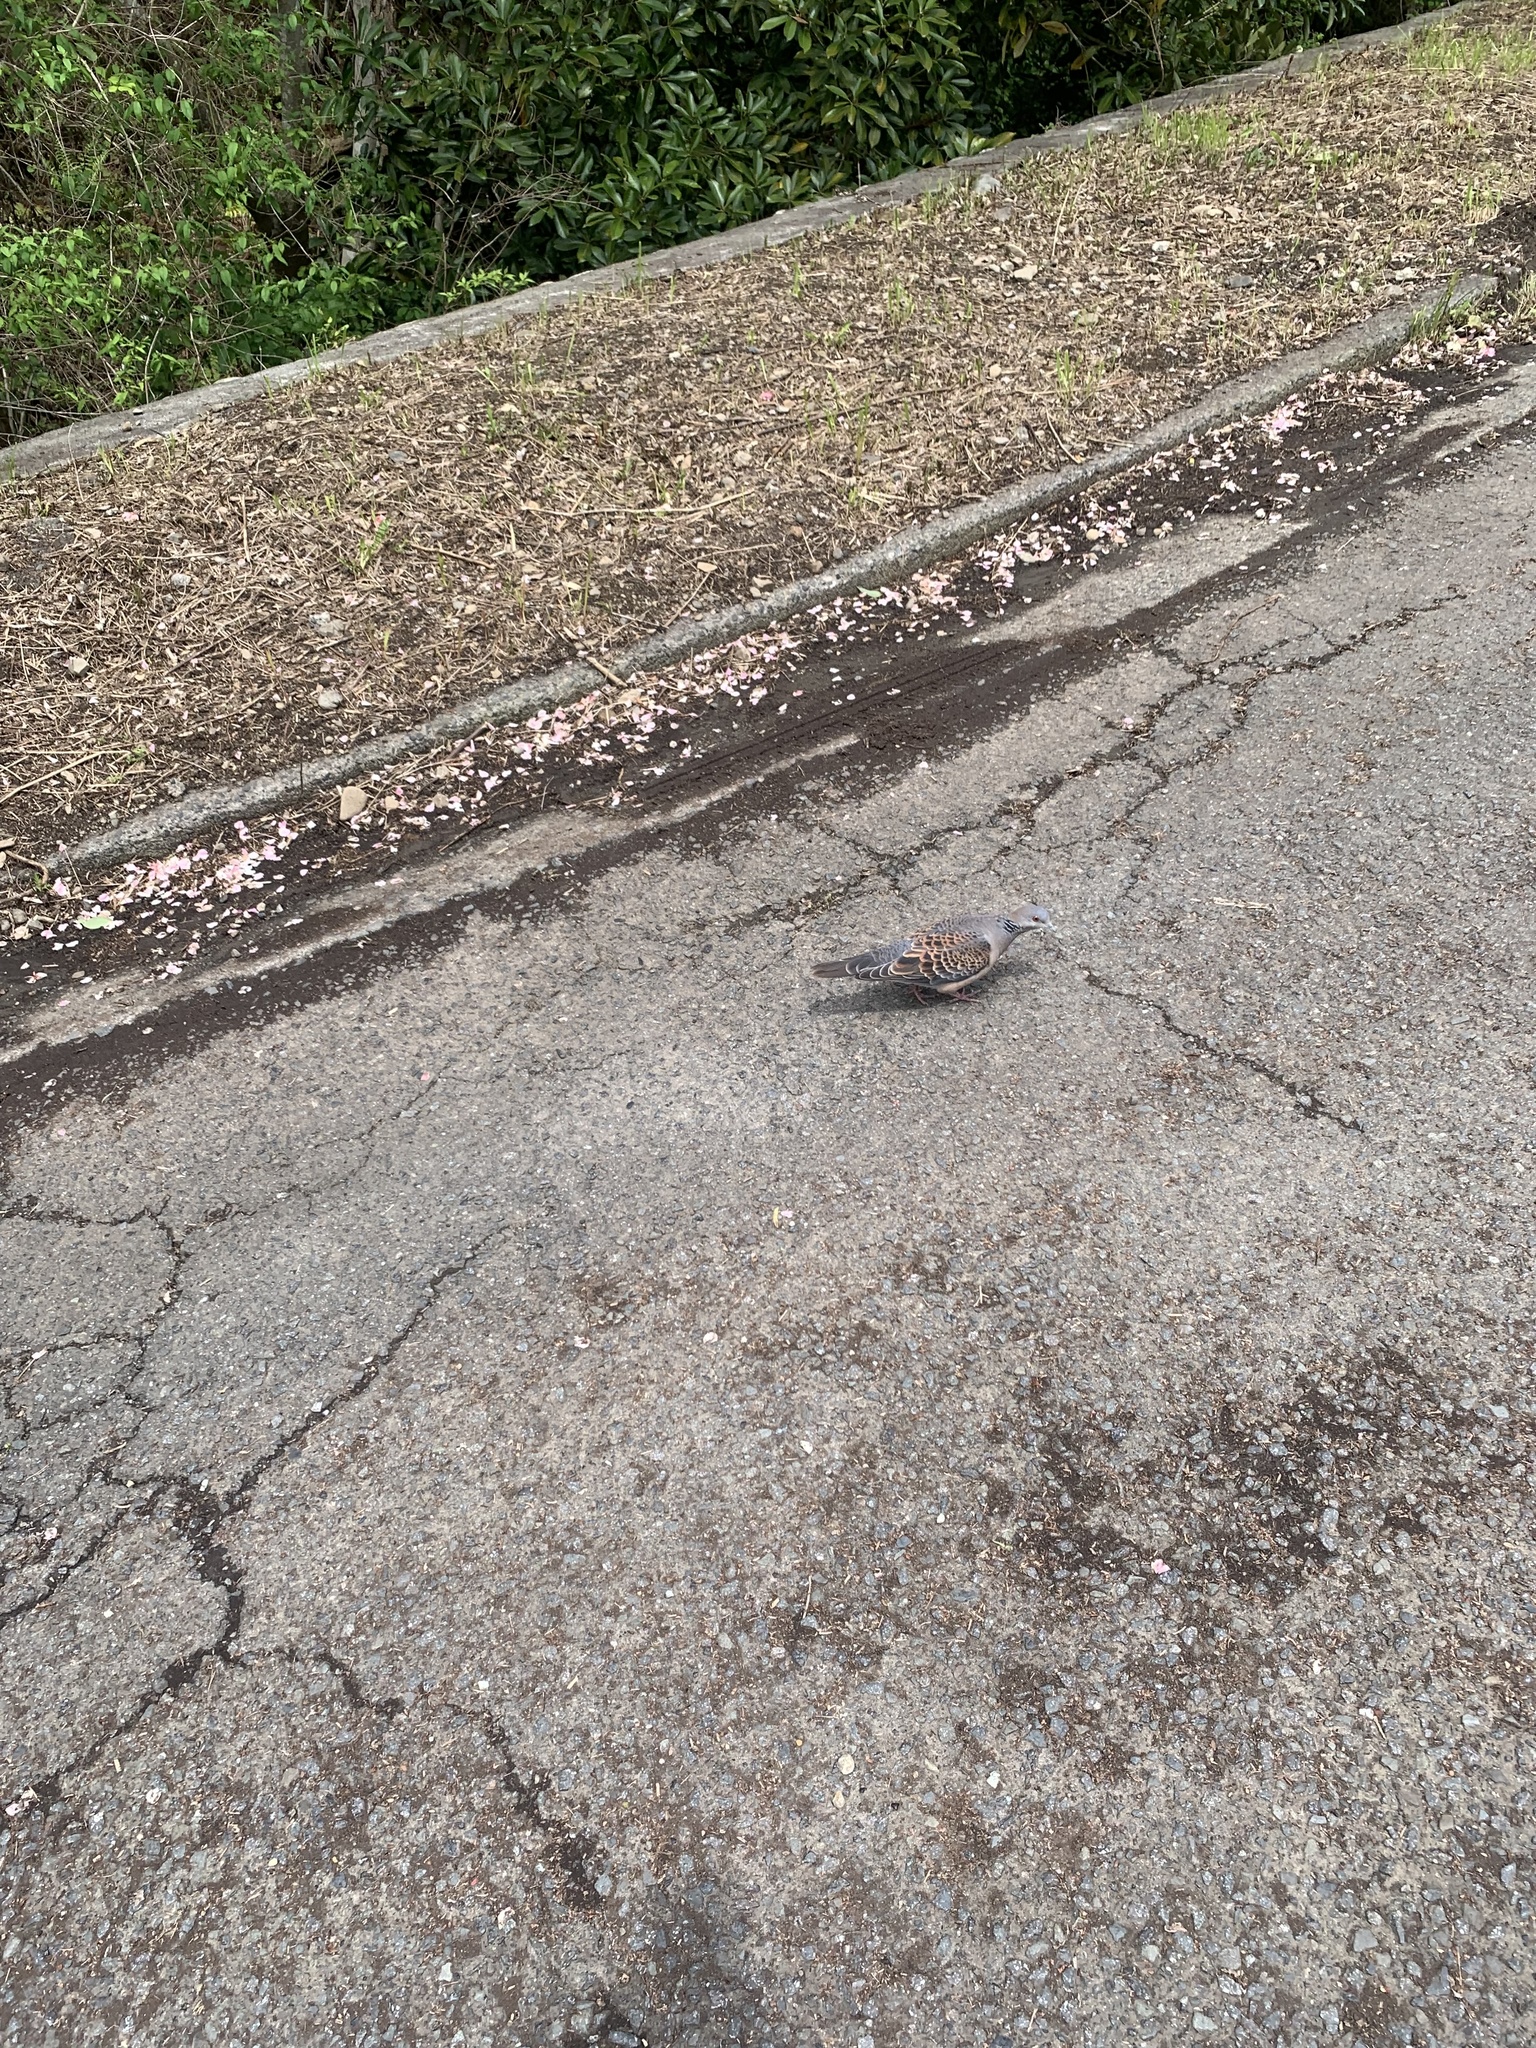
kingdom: Animalia
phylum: Chordata
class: Aves
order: Columbiformes
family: Columbidae
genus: Streptopelia
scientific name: Streptopelia orientalis
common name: Oriental turtle dove
